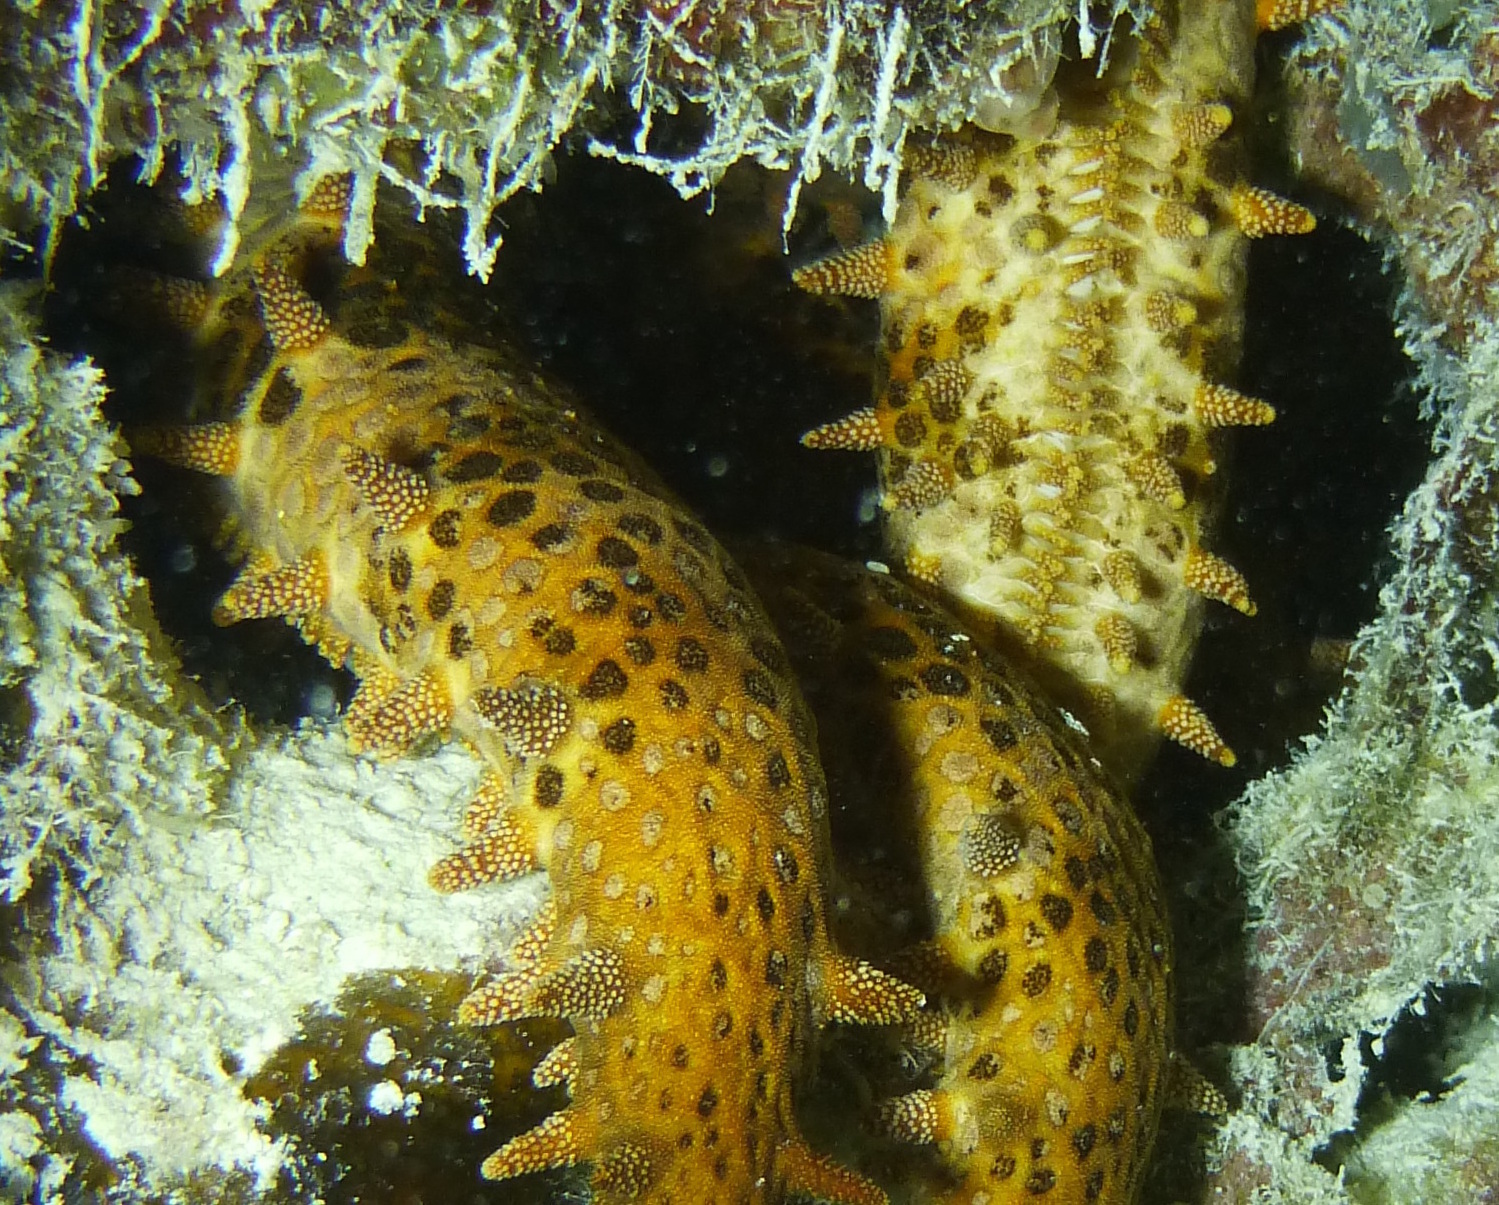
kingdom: Animalia
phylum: Echinodermata
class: Asteroidea
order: Valvatida
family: Mithrodiidae
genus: Mithrodia
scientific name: Mithrodia clavigera
